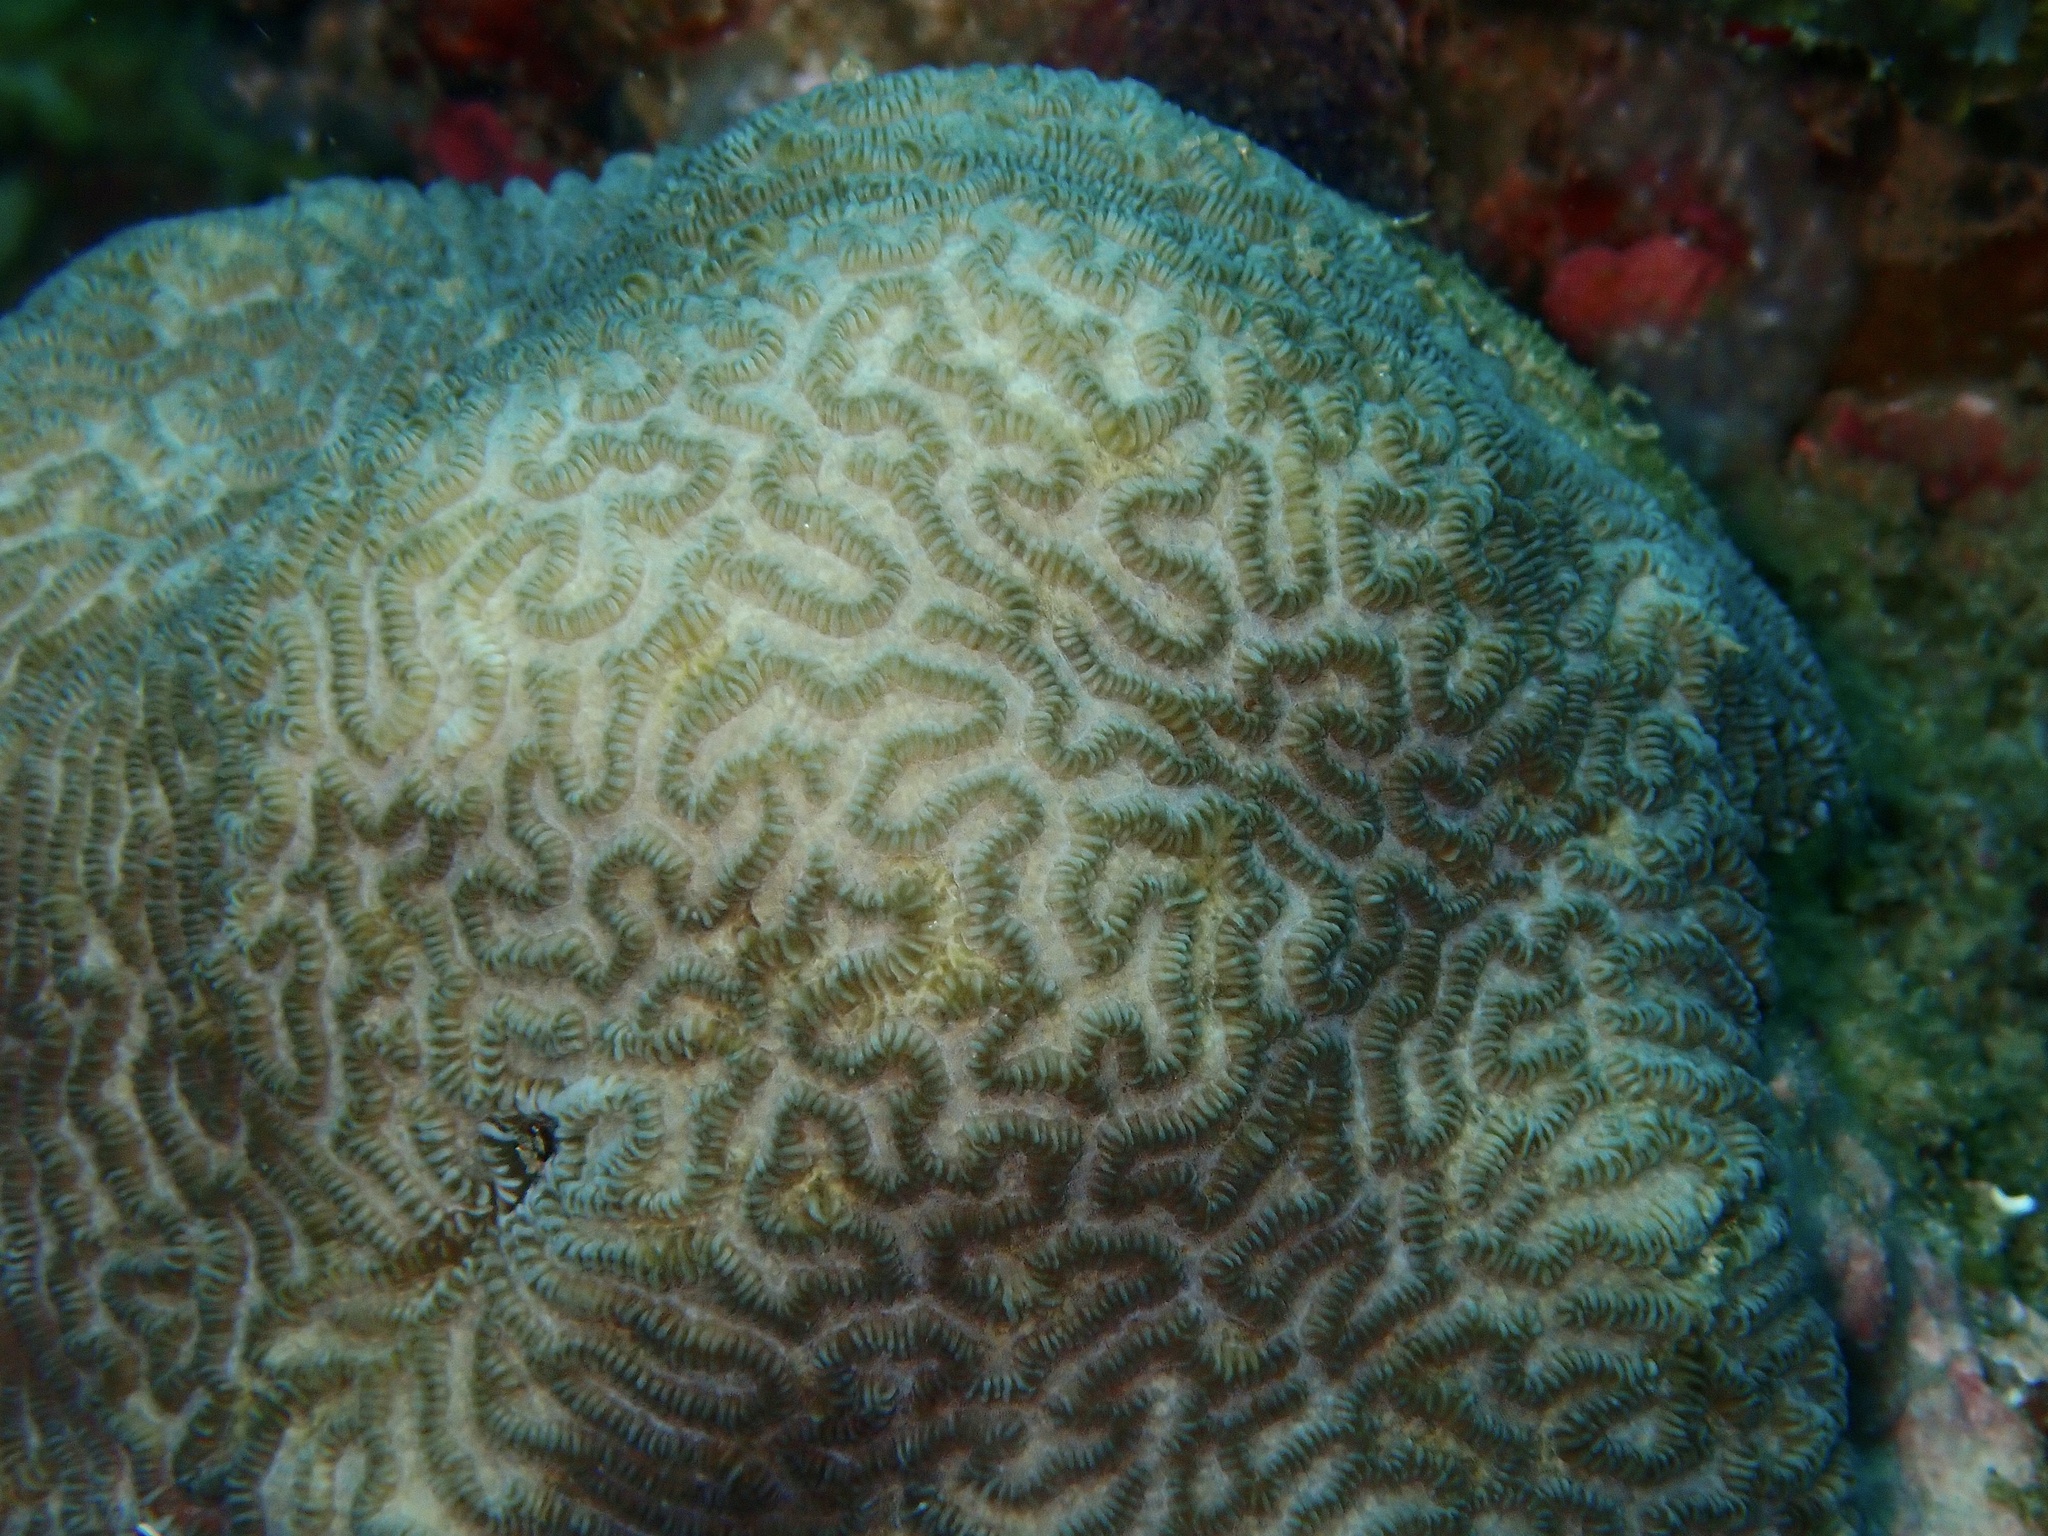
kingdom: Animalia
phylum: Cnidaria
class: Anthozoa
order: Scleractinia
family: Merulinidae
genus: Merulina
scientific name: Merulina cylindrica
